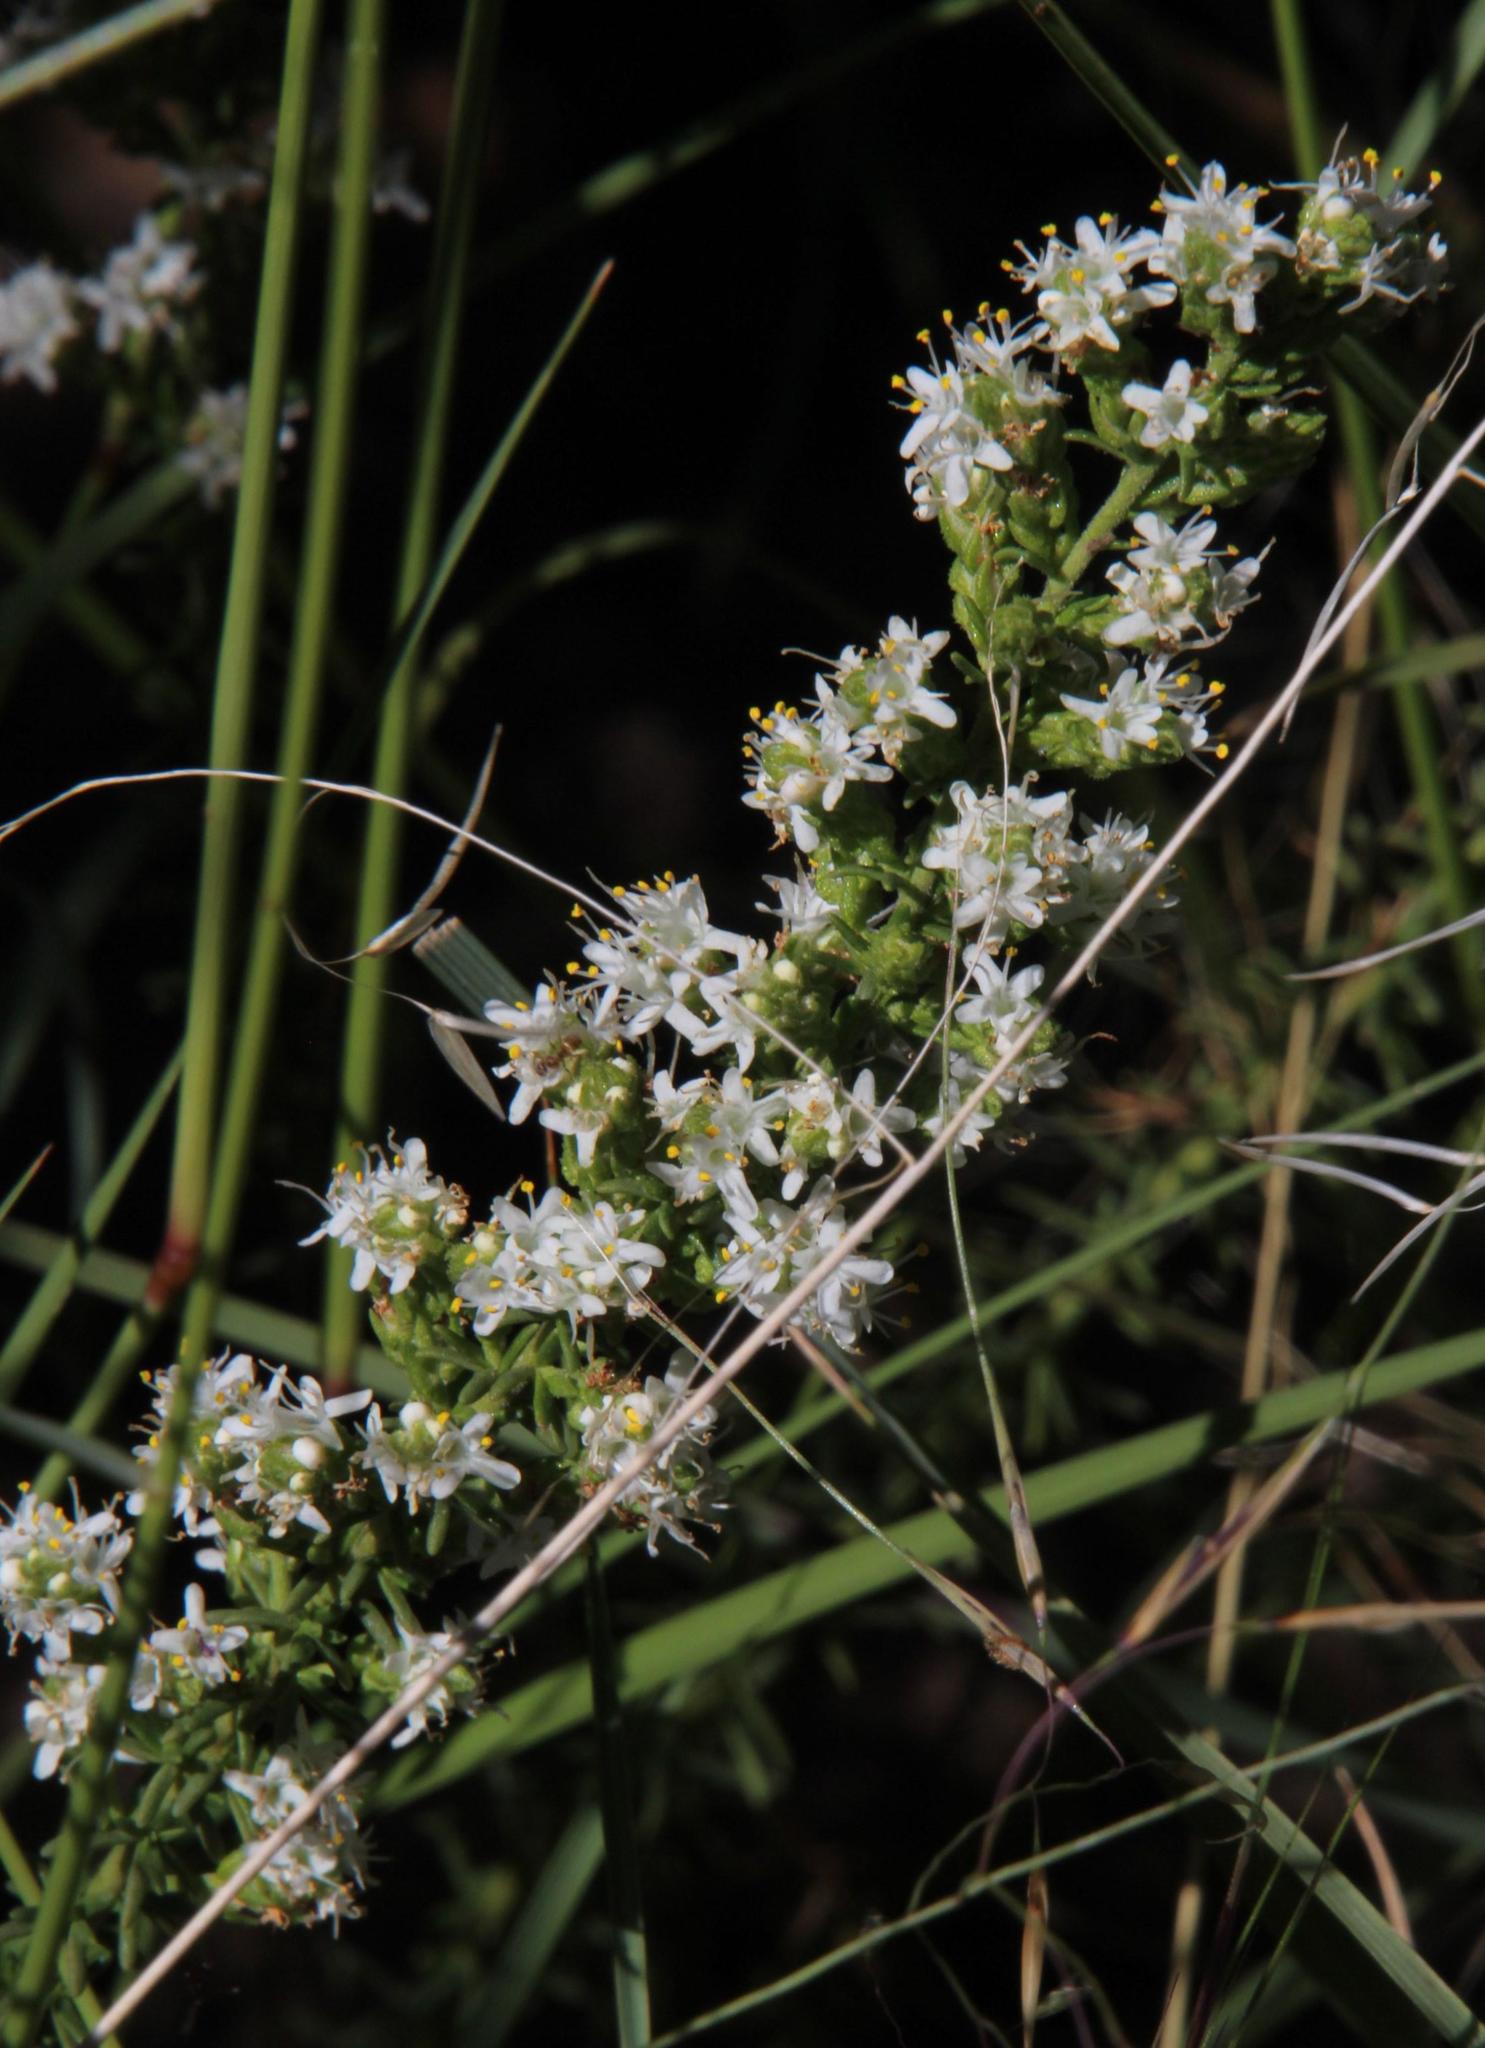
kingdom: Plantae
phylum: Tracheophyta
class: Liliopsida
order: Asparagales
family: Asparagaceae
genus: Asparagus
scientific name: Asparagus suaveolens
